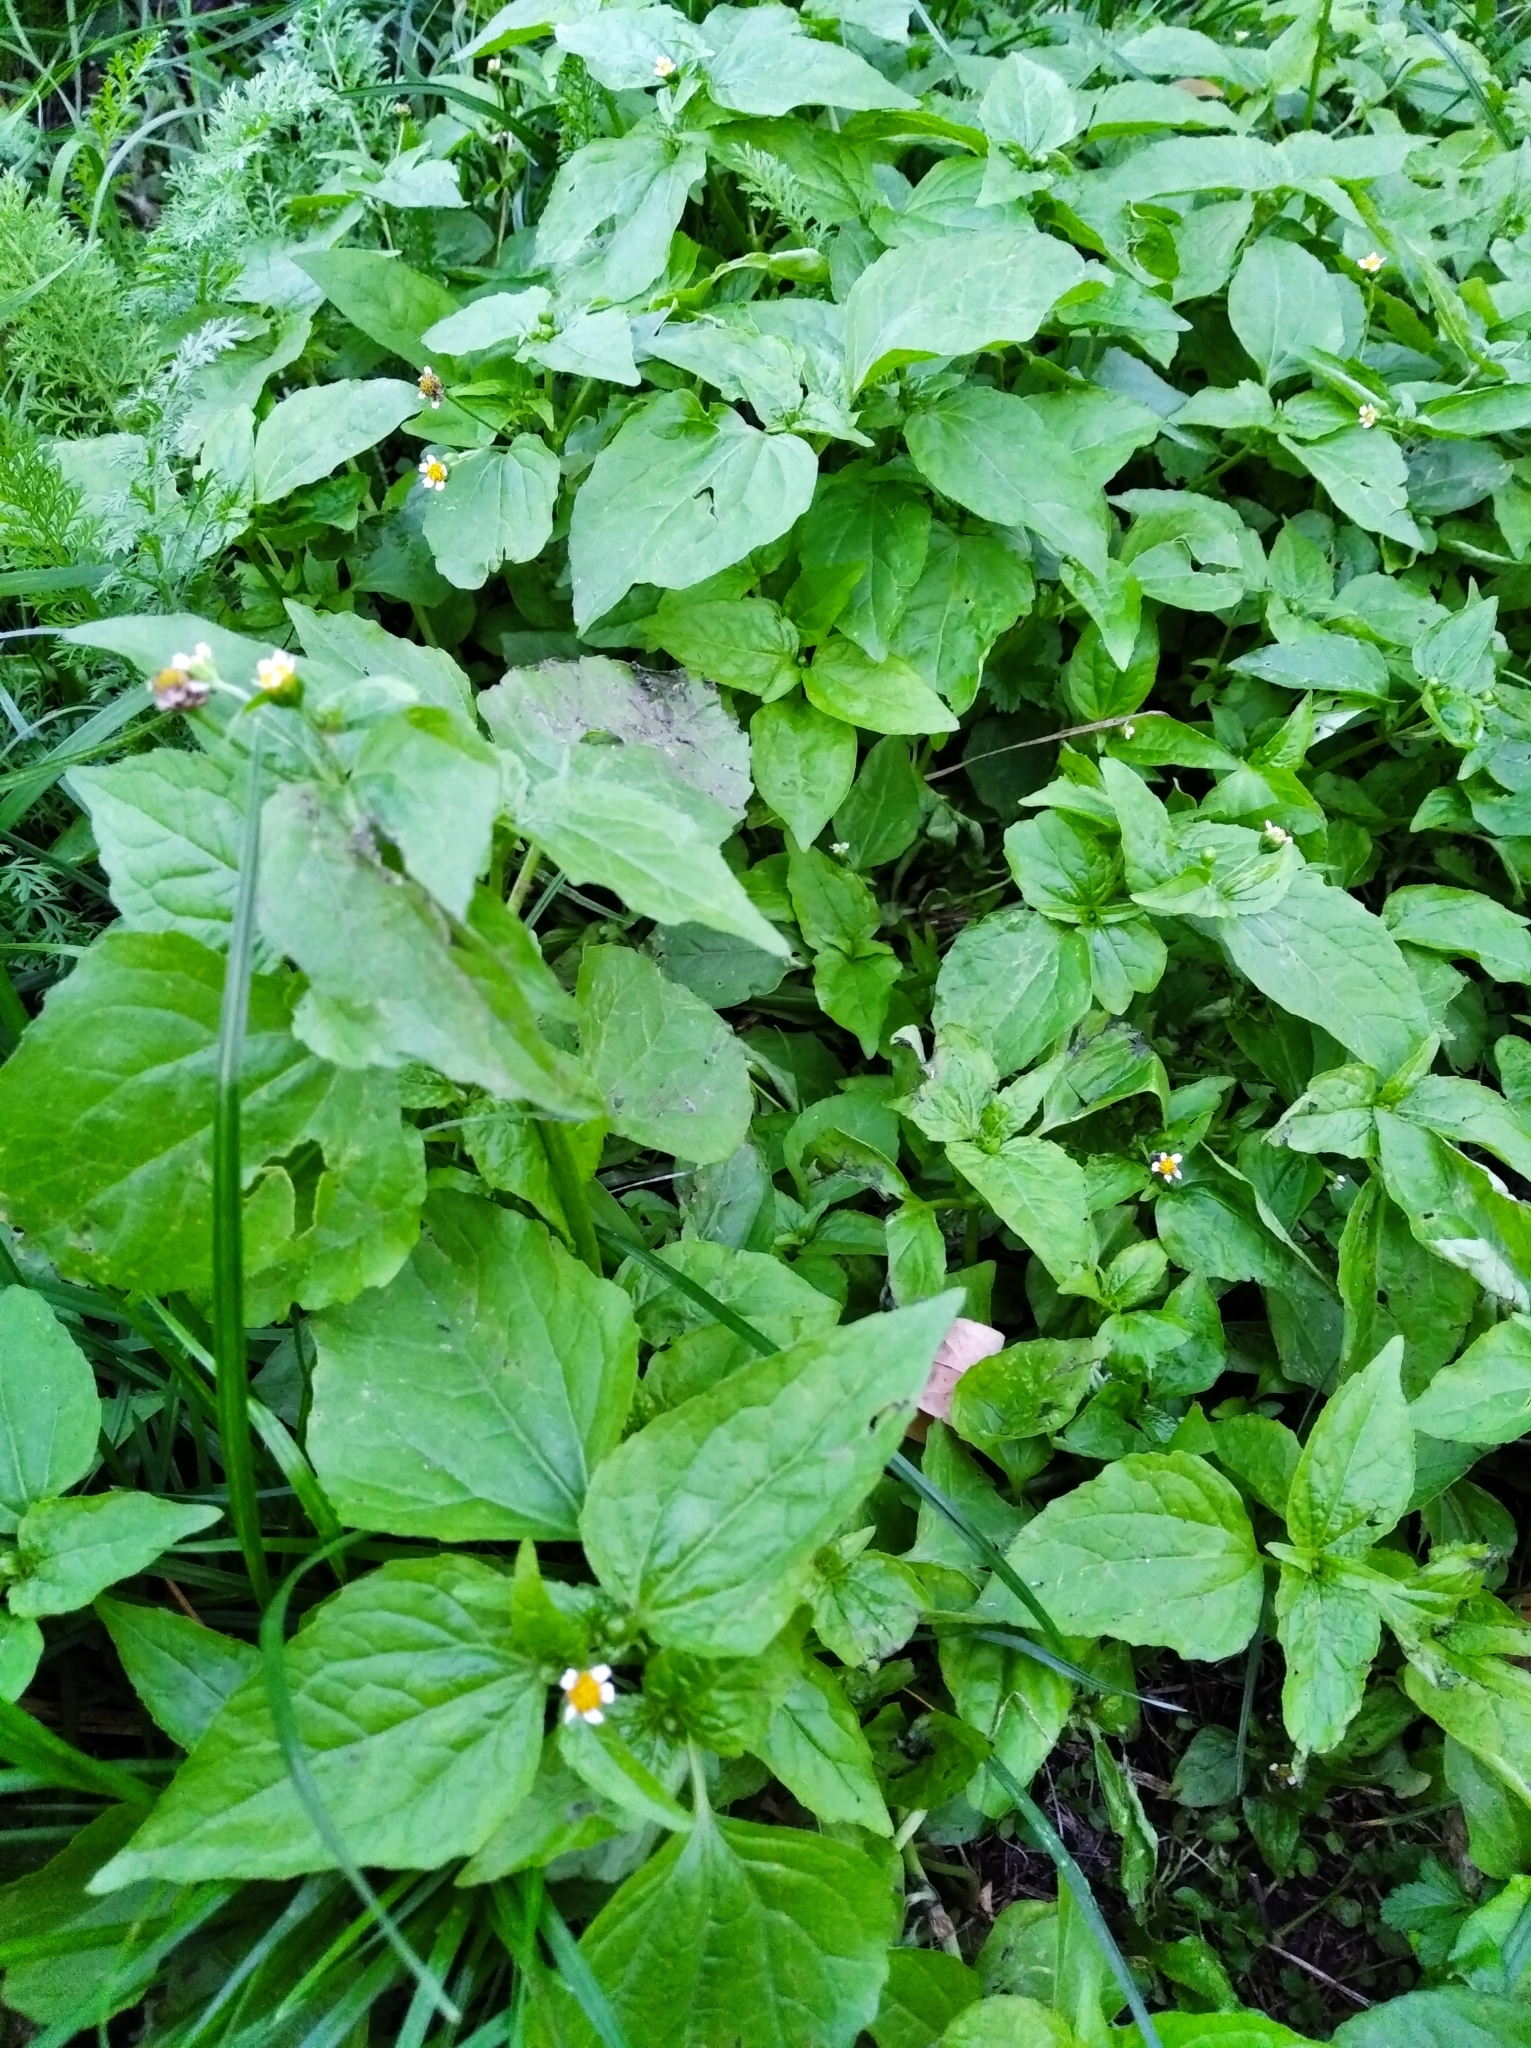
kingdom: Plantae
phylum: Tracheophyta
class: Magnoliopsida
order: Asterales
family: Asteraceae
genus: Galinsoga
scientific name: Galinsoga parviflora
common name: Gallant soldier
